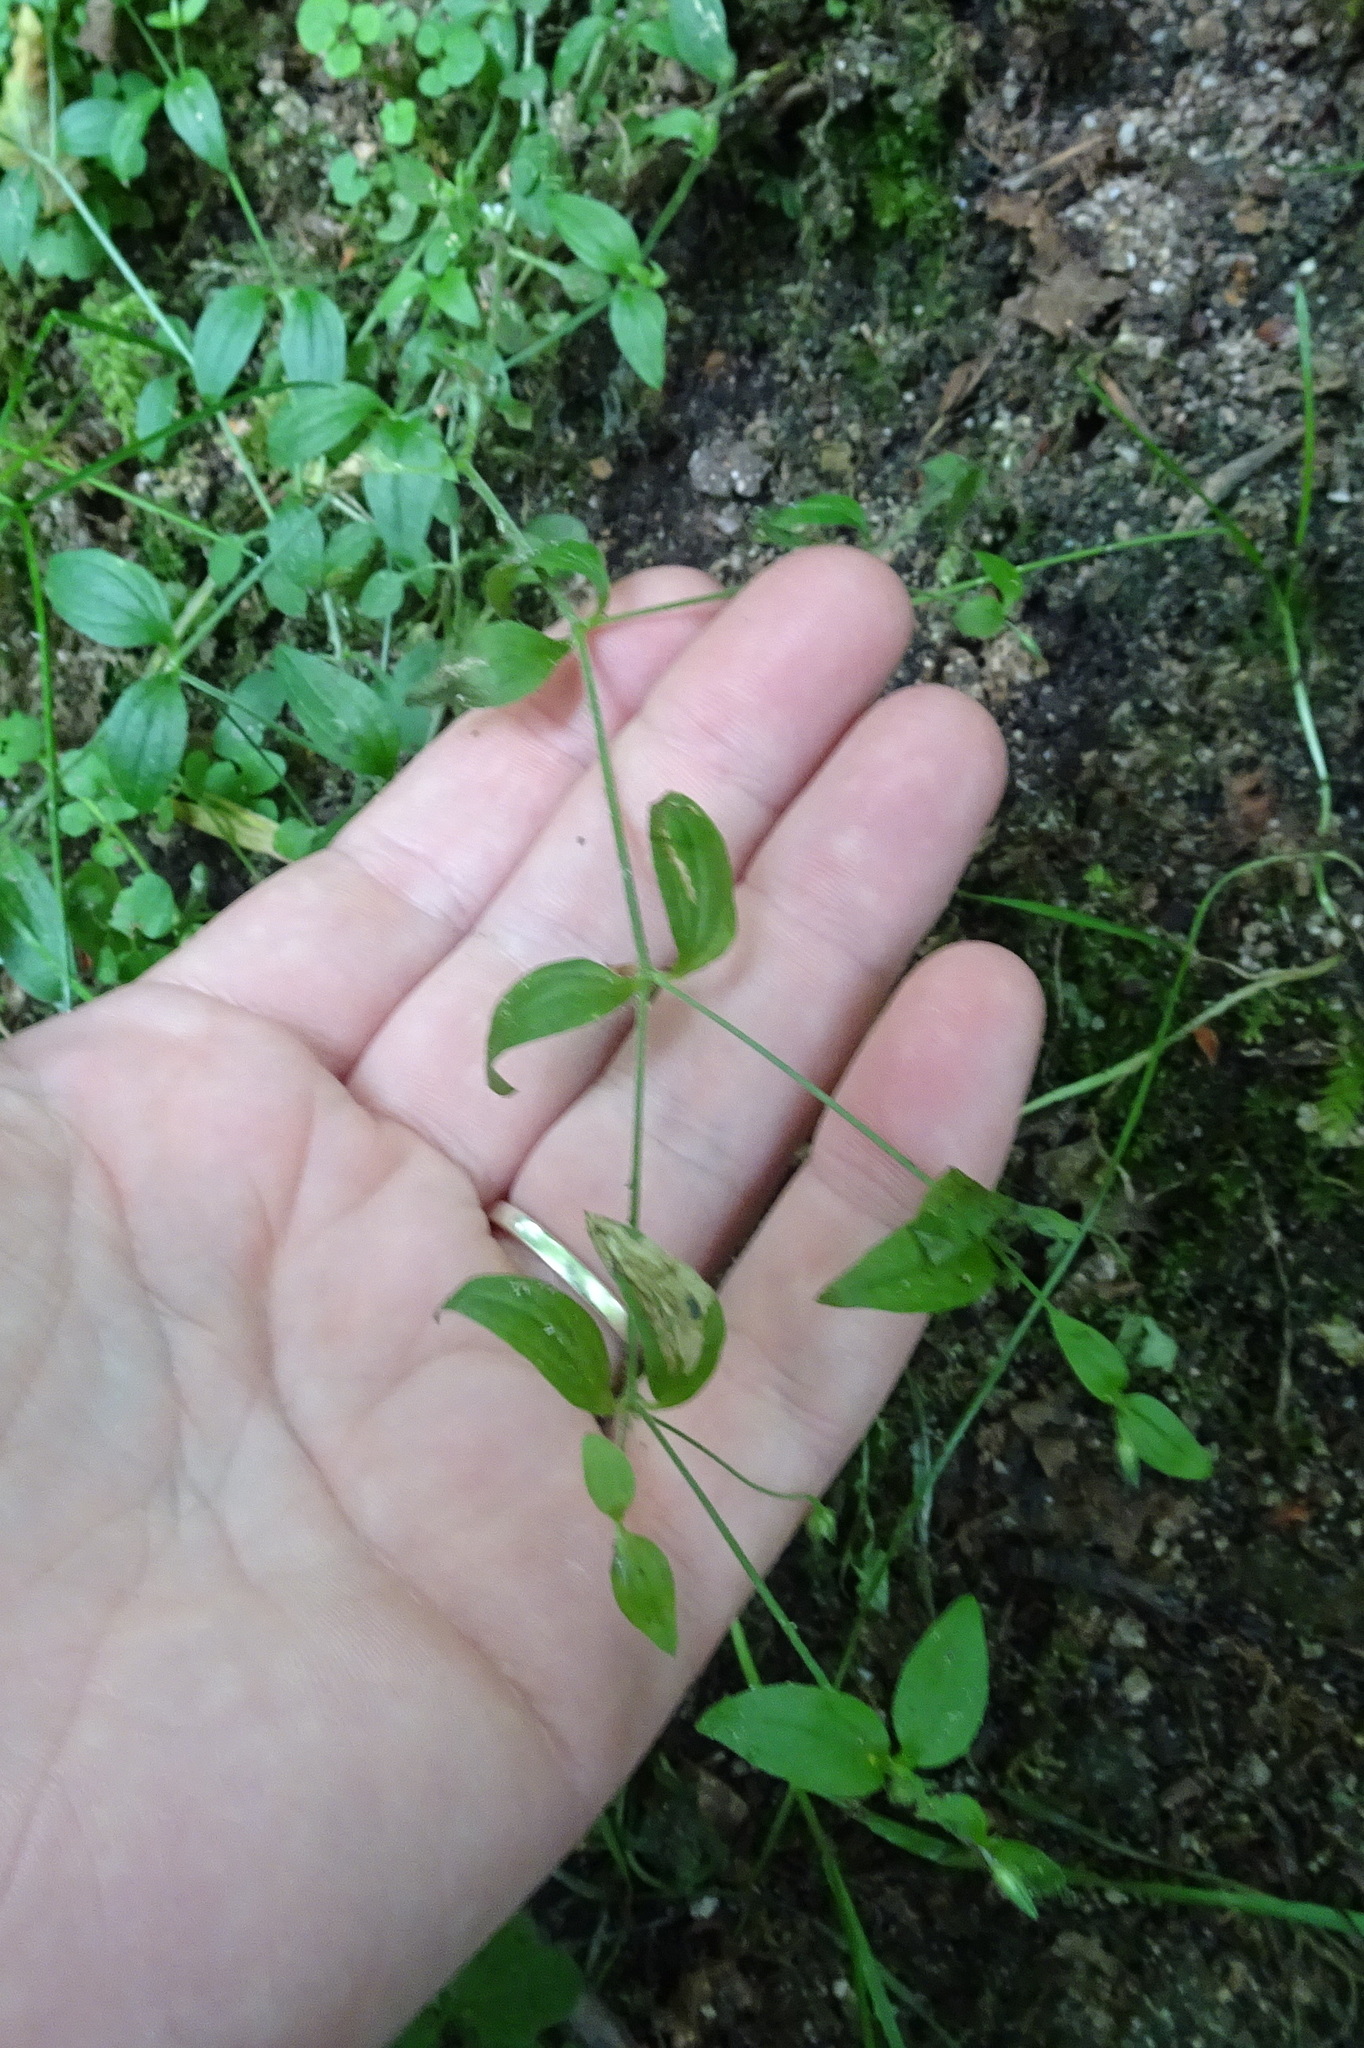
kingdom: Plantae
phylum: Tracheophyta
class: Magnoliopsida
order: Caryophyllales
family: Caryophyllaceae
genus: Moehringia
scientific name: Moehringia trinervia
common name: Three-nerved sandwort
